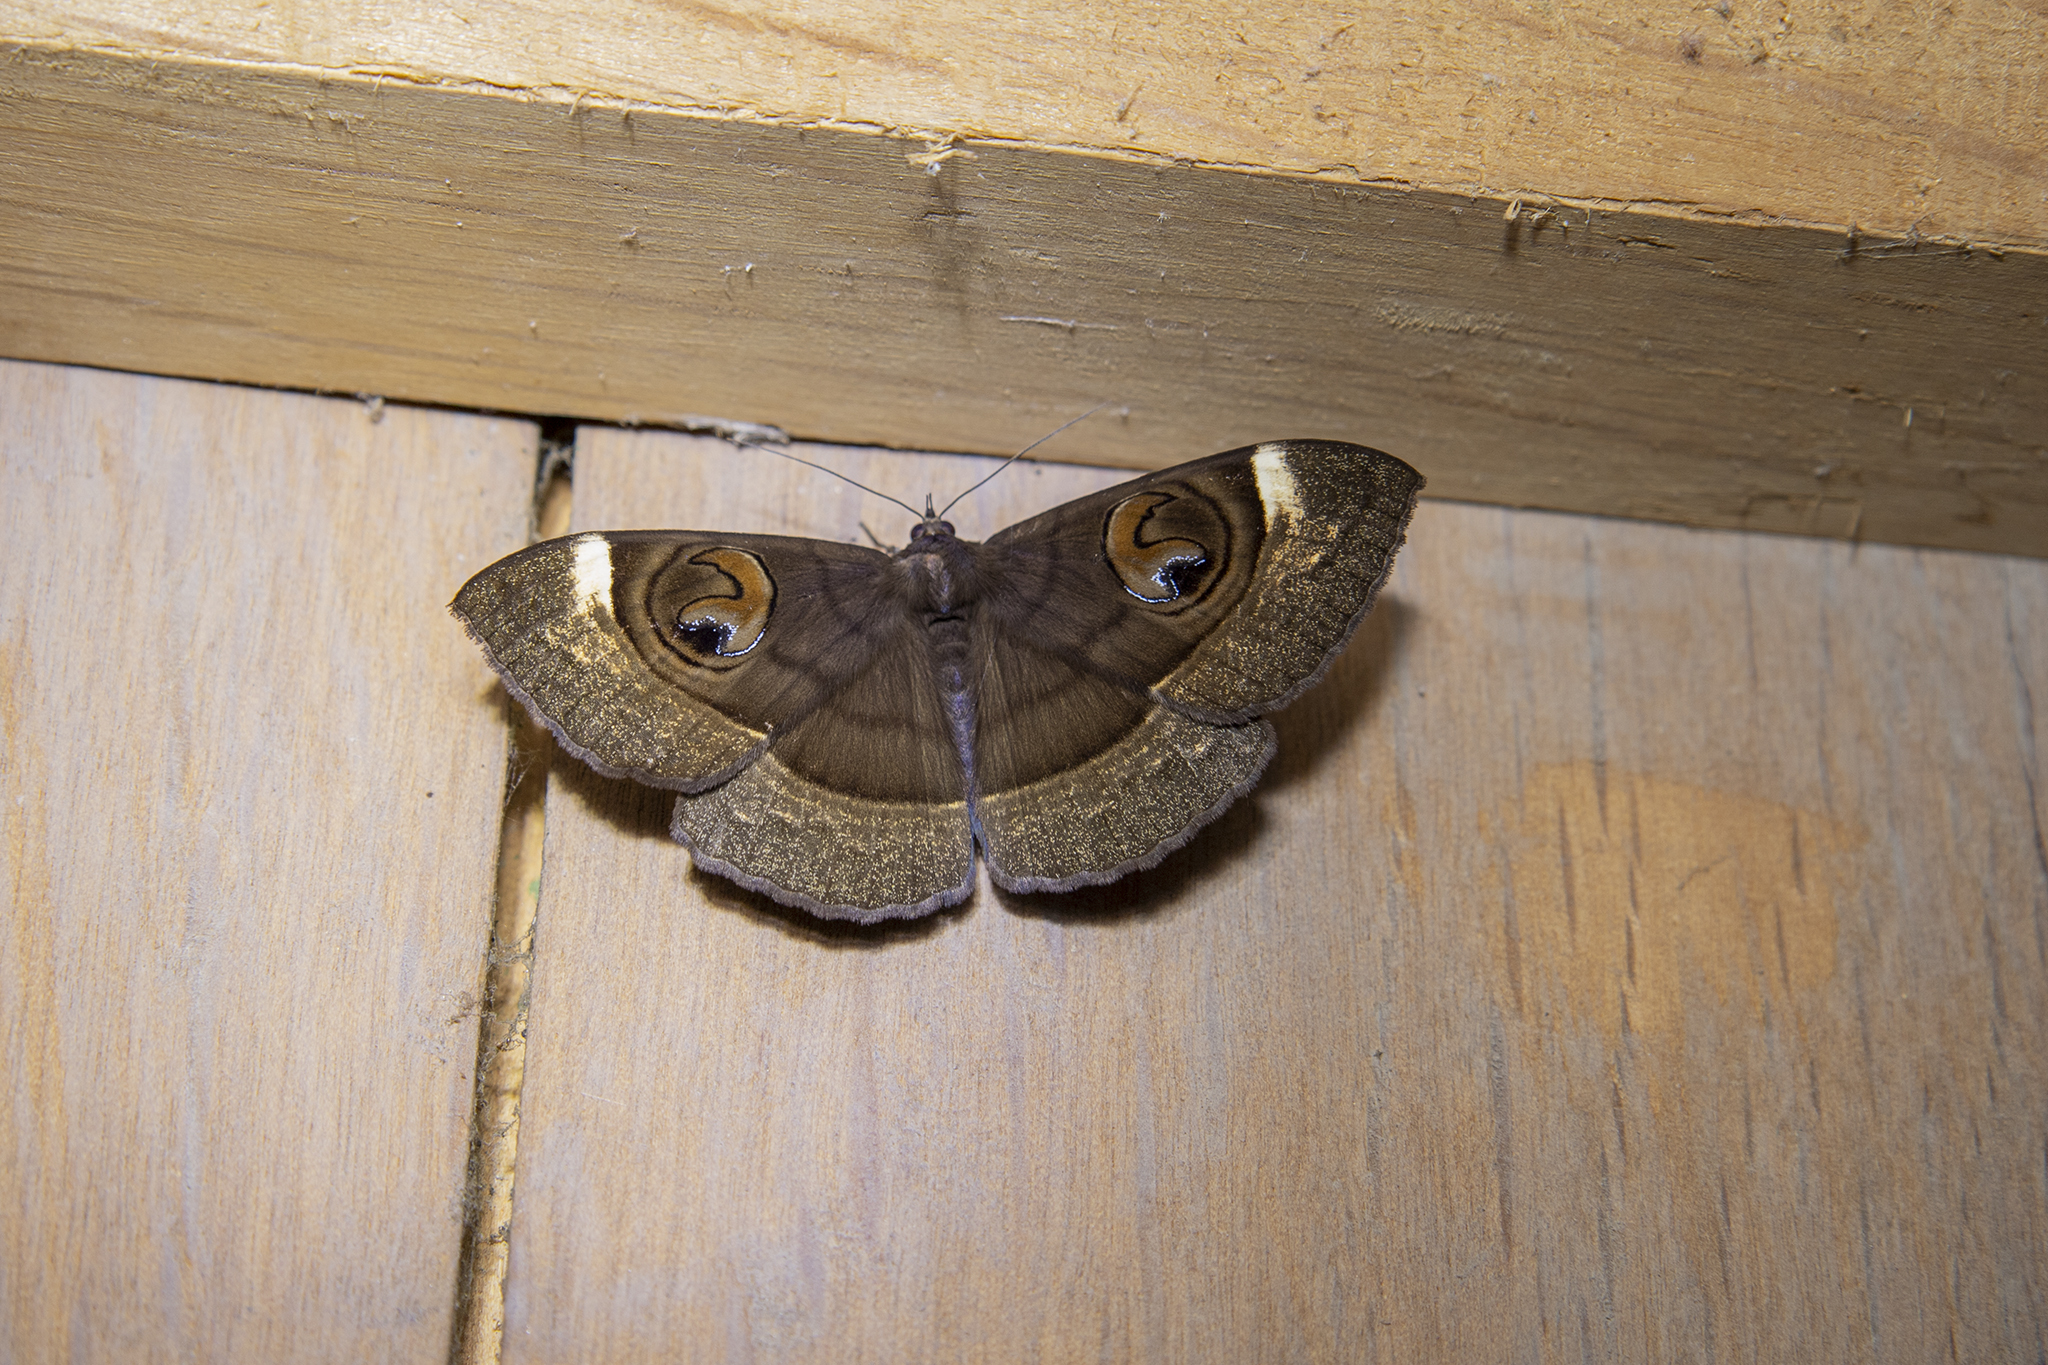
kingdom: Animalia
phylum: Arthropoda
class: Insecta
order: Lepidoptera
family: Erebidae
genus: Erebus
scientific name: Erebus gemmans
